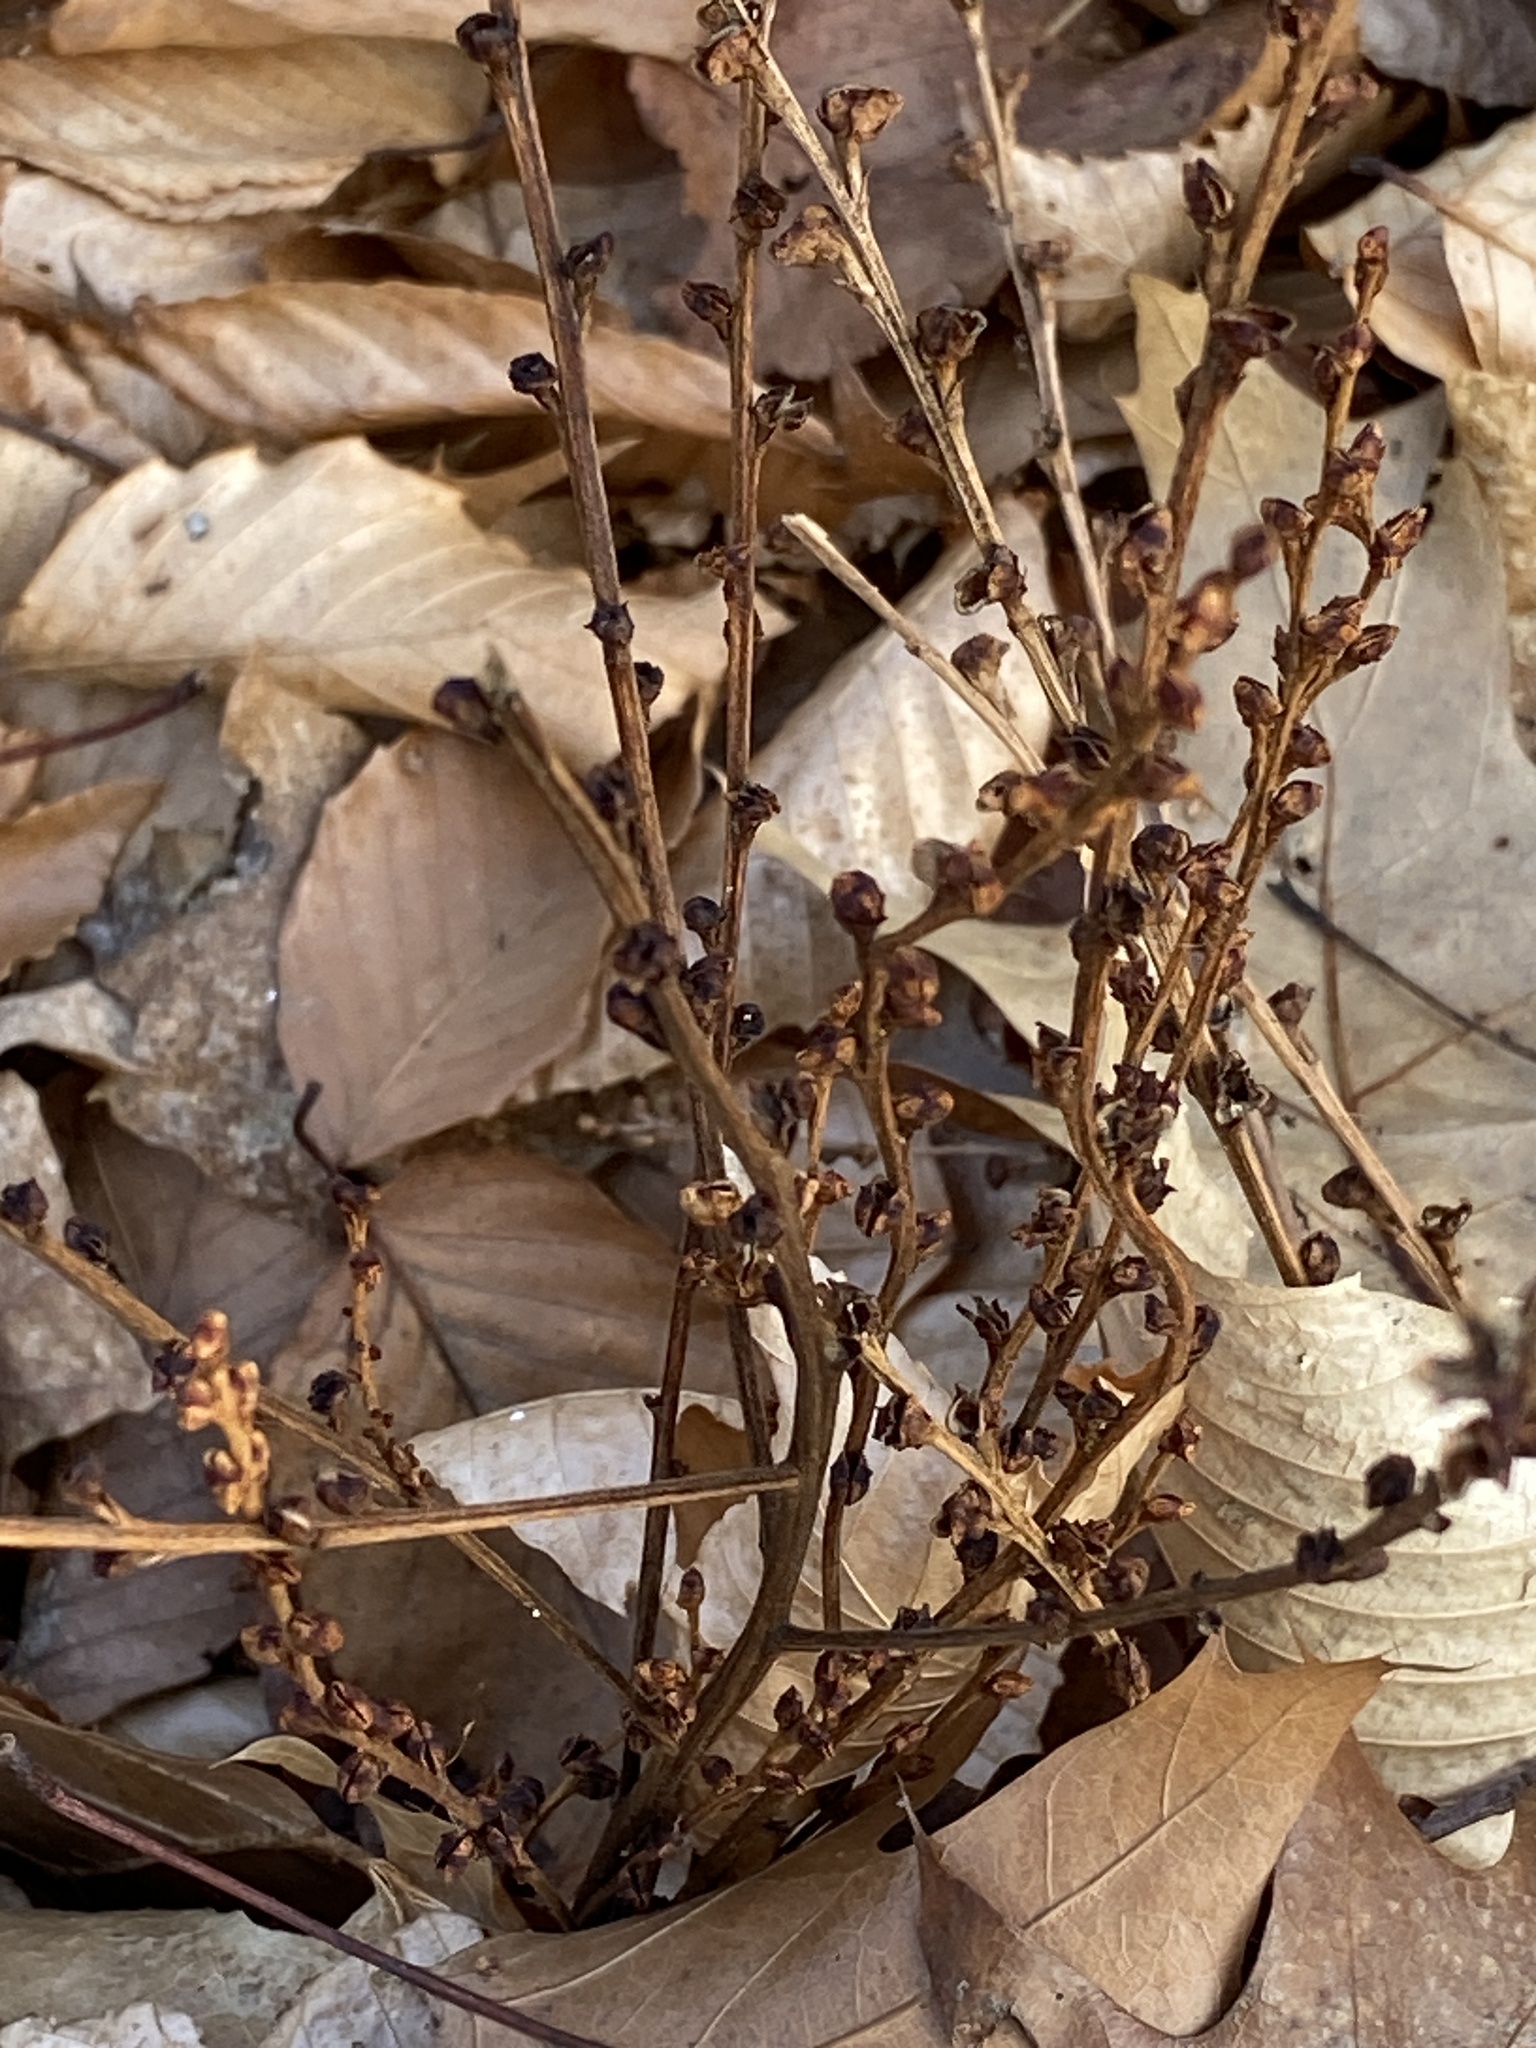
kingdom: Plantae
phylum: Tracheophyta
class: Magnoliopsida
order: Lamiales
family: Orobanchaceae
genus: Epifagus
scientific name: Epifagus virginiana
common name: Beechdrops
